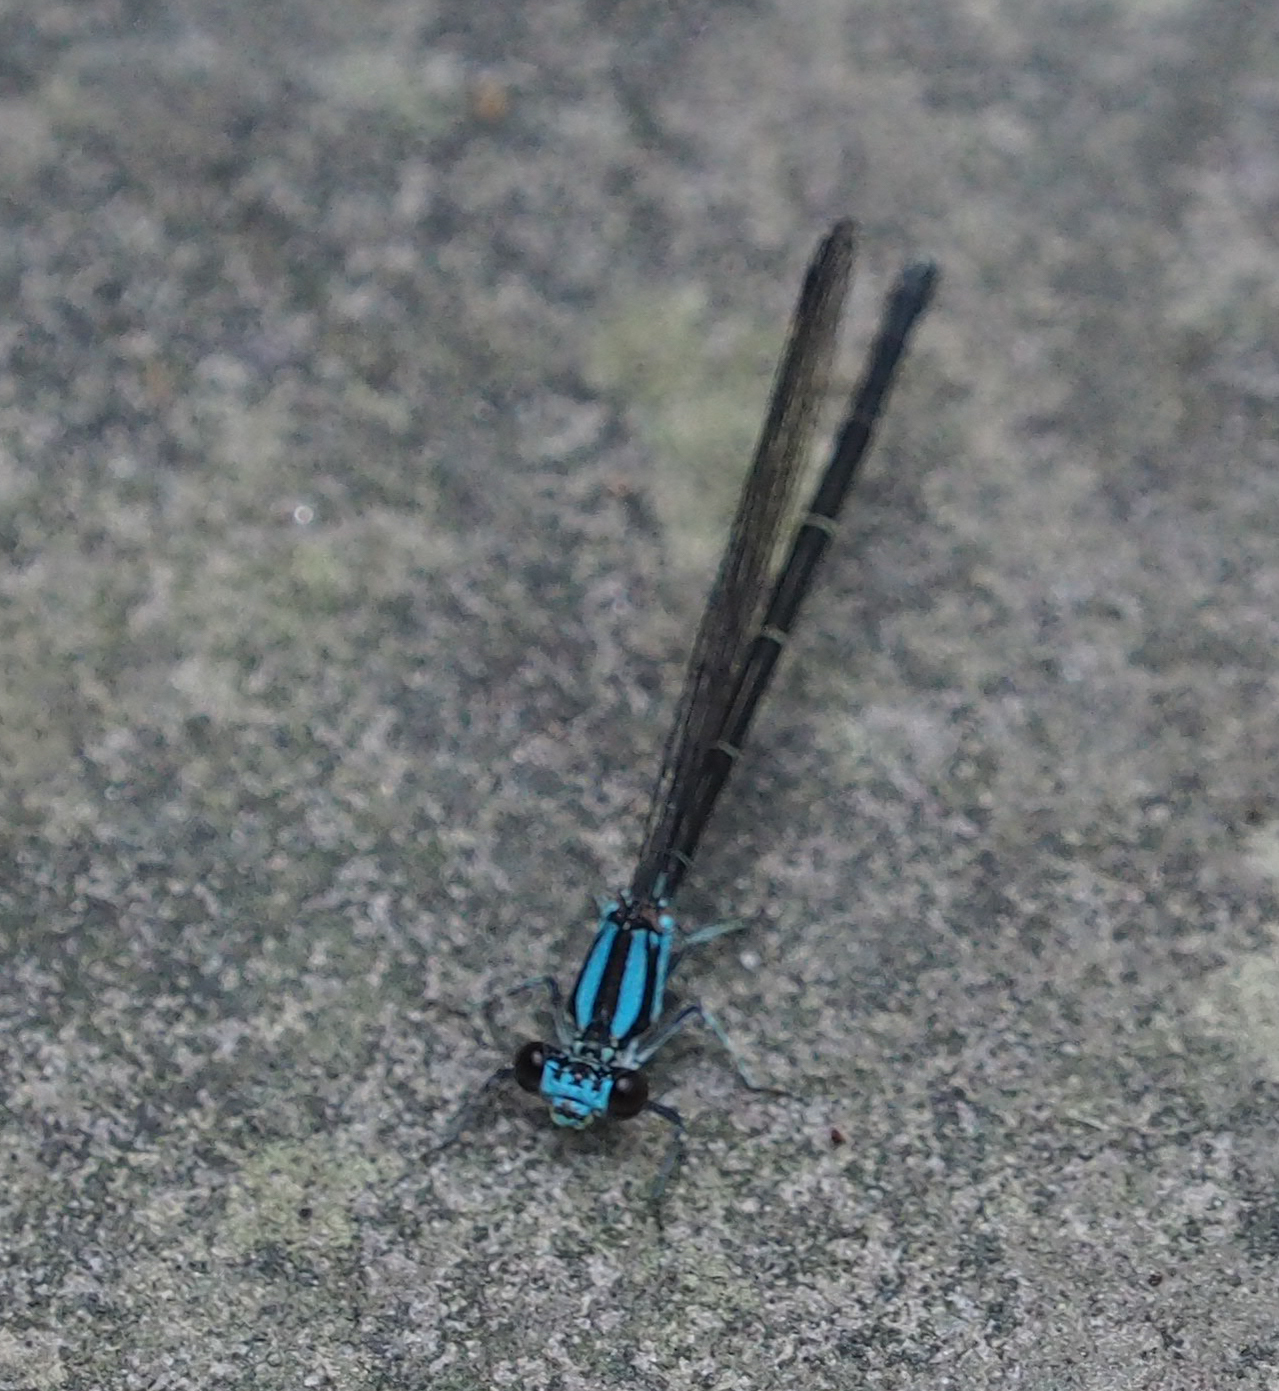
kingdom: Animalia
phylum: Arthropoda
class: Insecta
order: Odonata
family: Coenagrionidae
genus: Argia
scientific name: Argia tibialis
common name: Blue-tipped dancer
